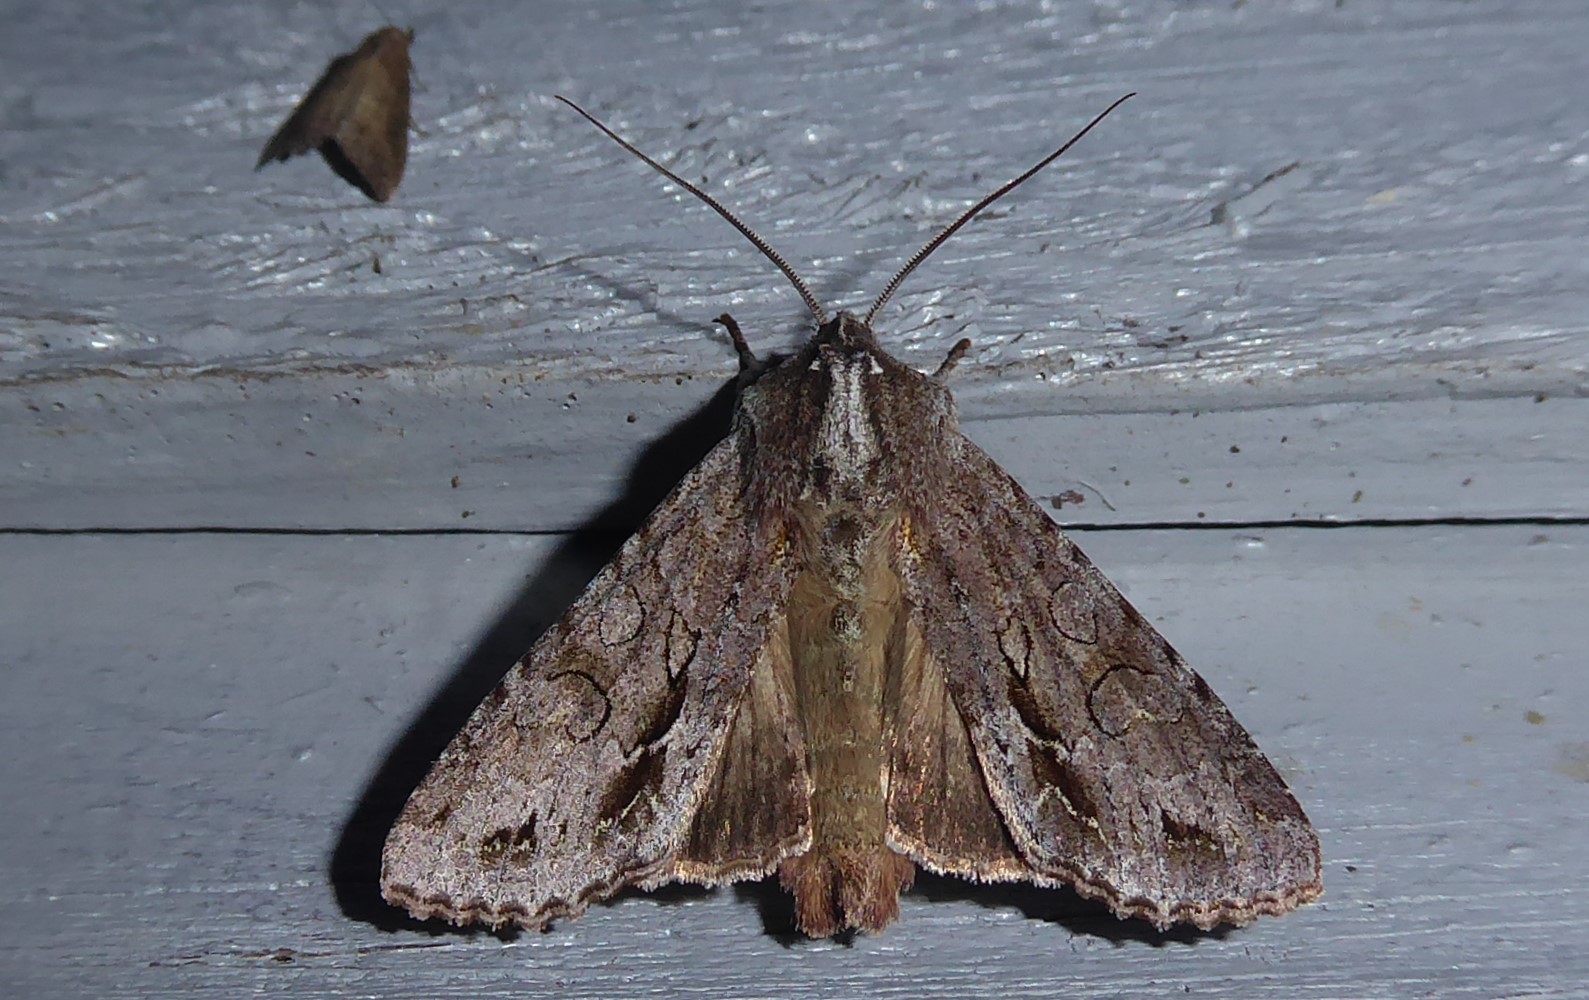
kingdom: Animalia
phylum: Arthropoda
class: Insecta
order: Lepidoptera
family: Noctuidae
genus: Ichneutica
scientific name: Ichneutica
